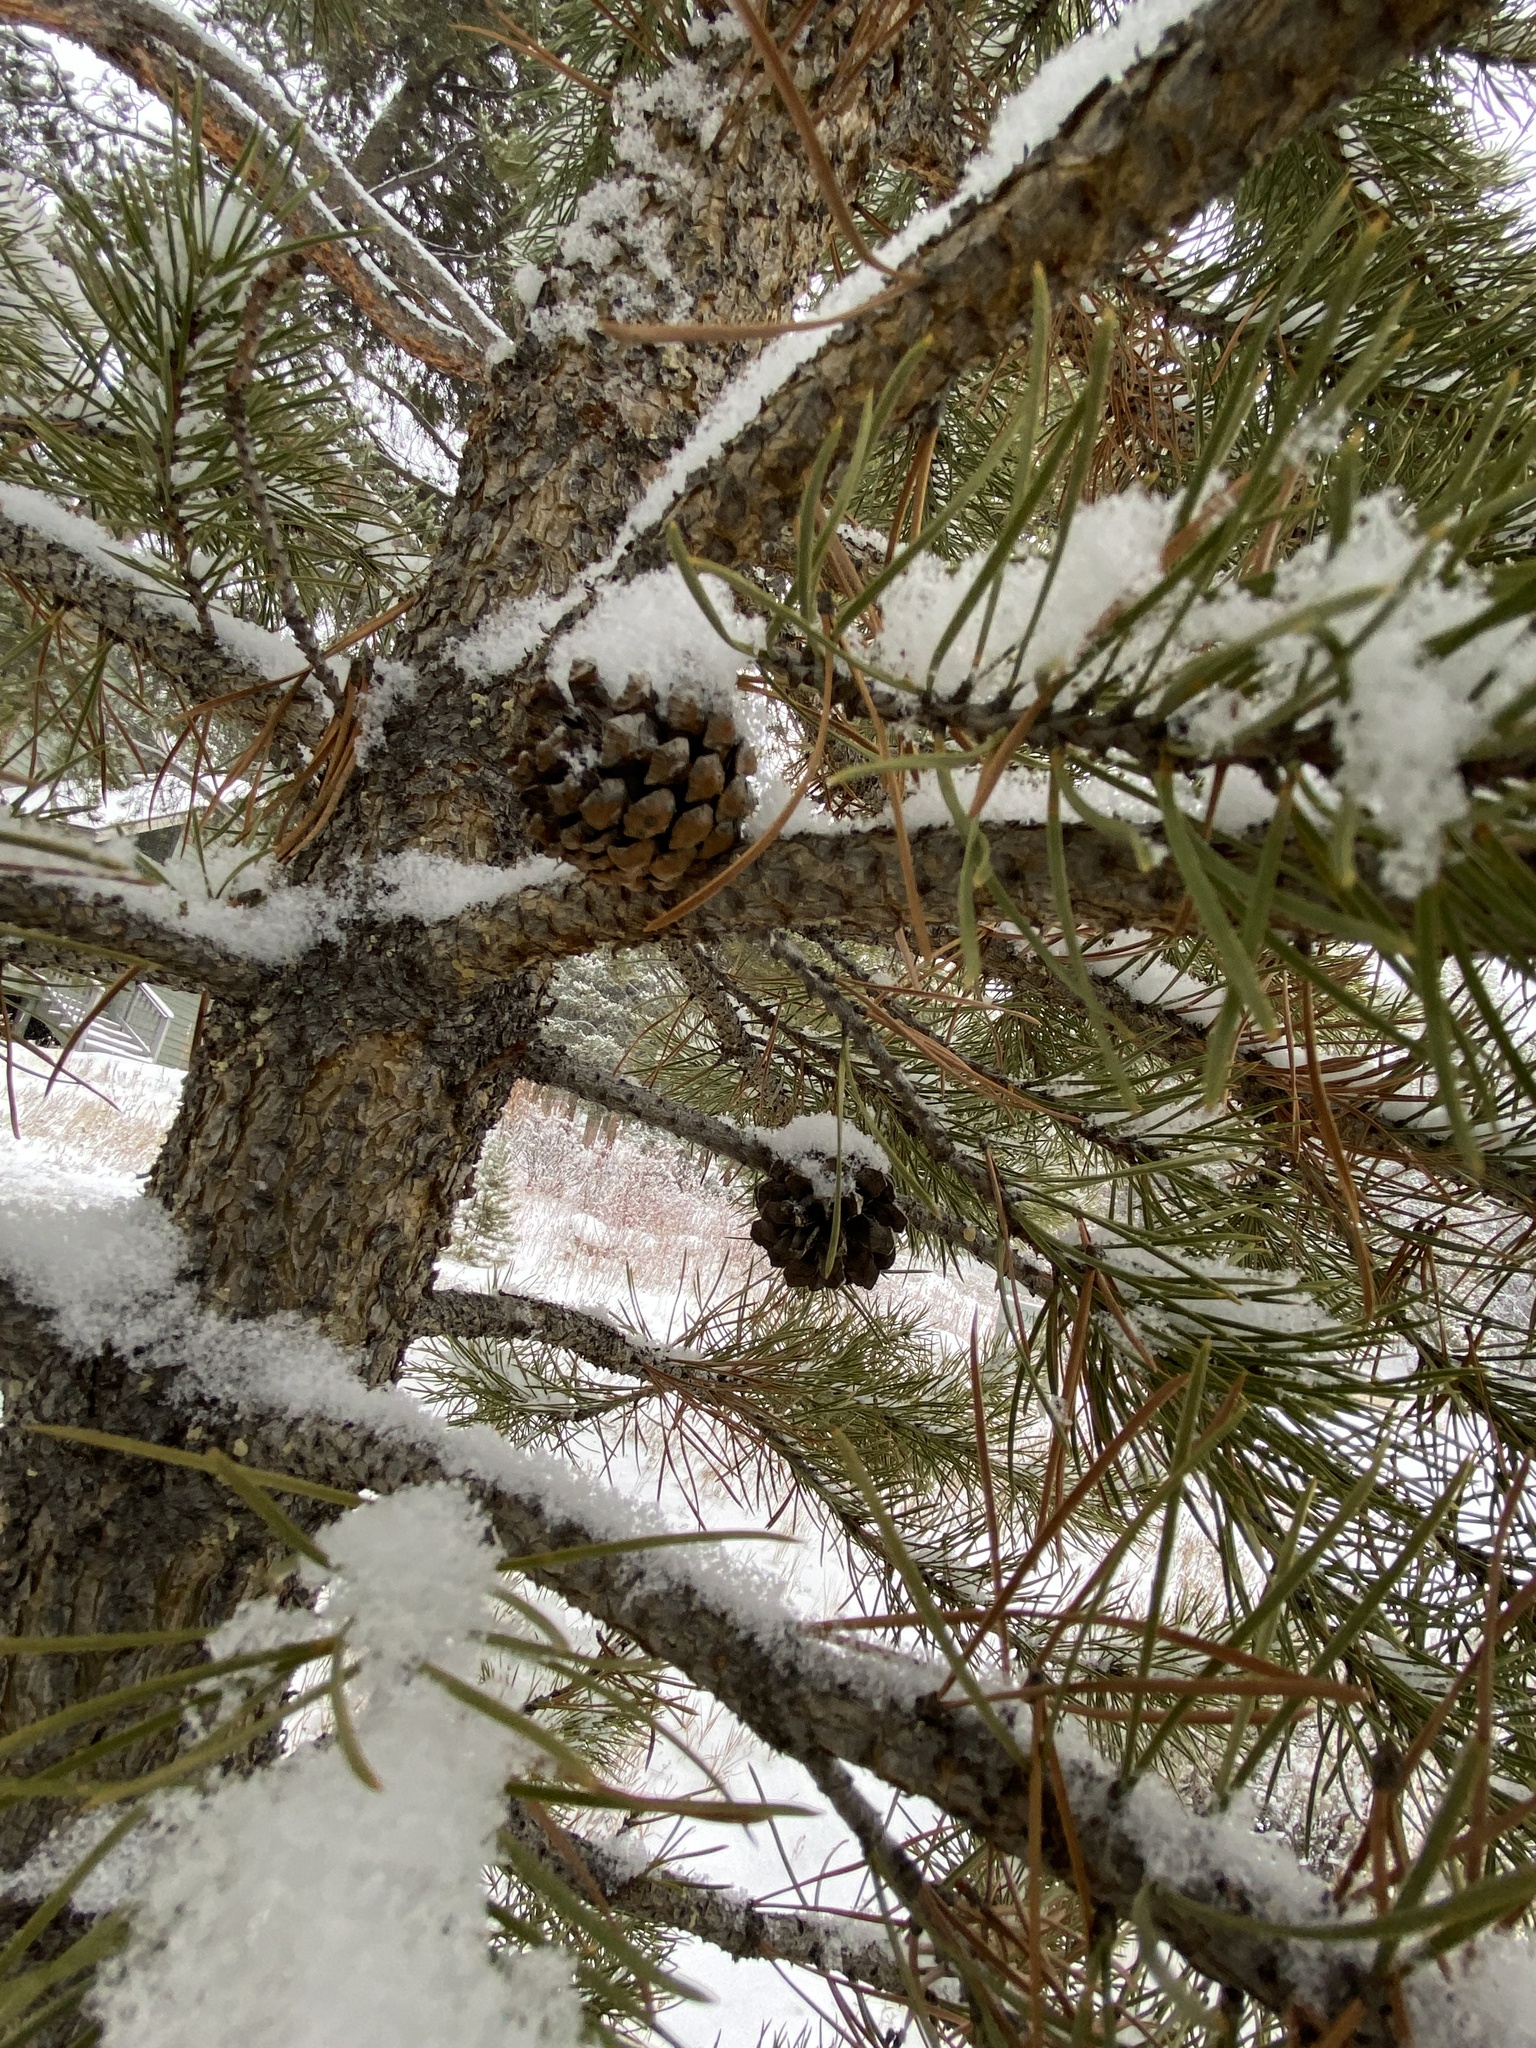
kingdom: Plantae
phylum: Tracheophyta
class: Pinopsida
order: Pinales
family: Pinaceae
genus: Pinus
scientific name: Pinus contorta
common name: Lodgepole pine
